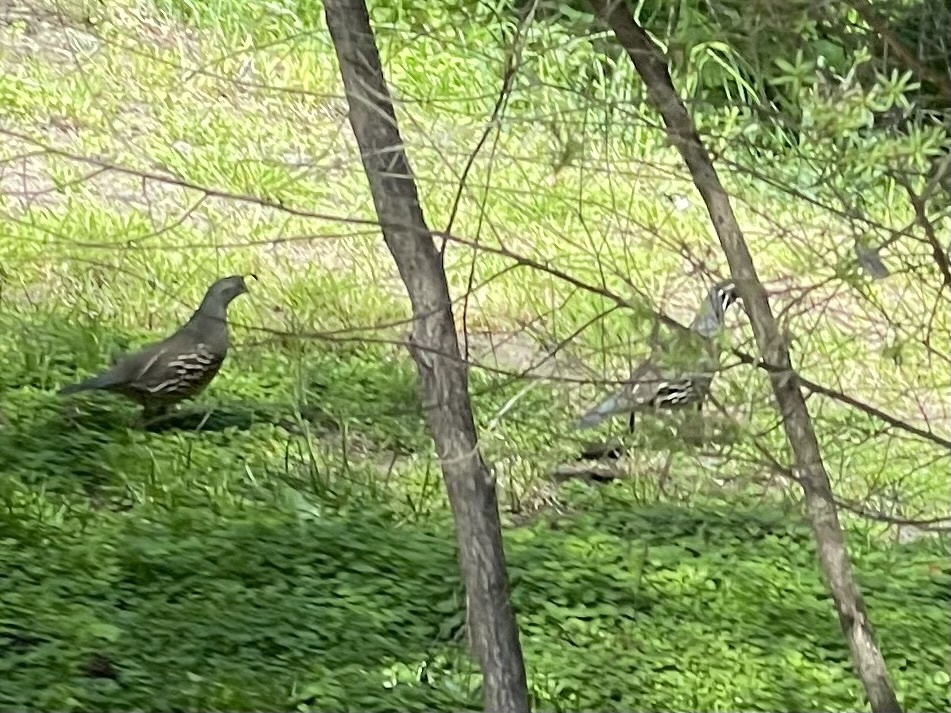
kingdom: Animalia
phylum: Chordata
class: Aves
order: Galliformes
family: Odontophoridae
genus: Callipepla
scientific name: Callipepla californica
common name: California quail
